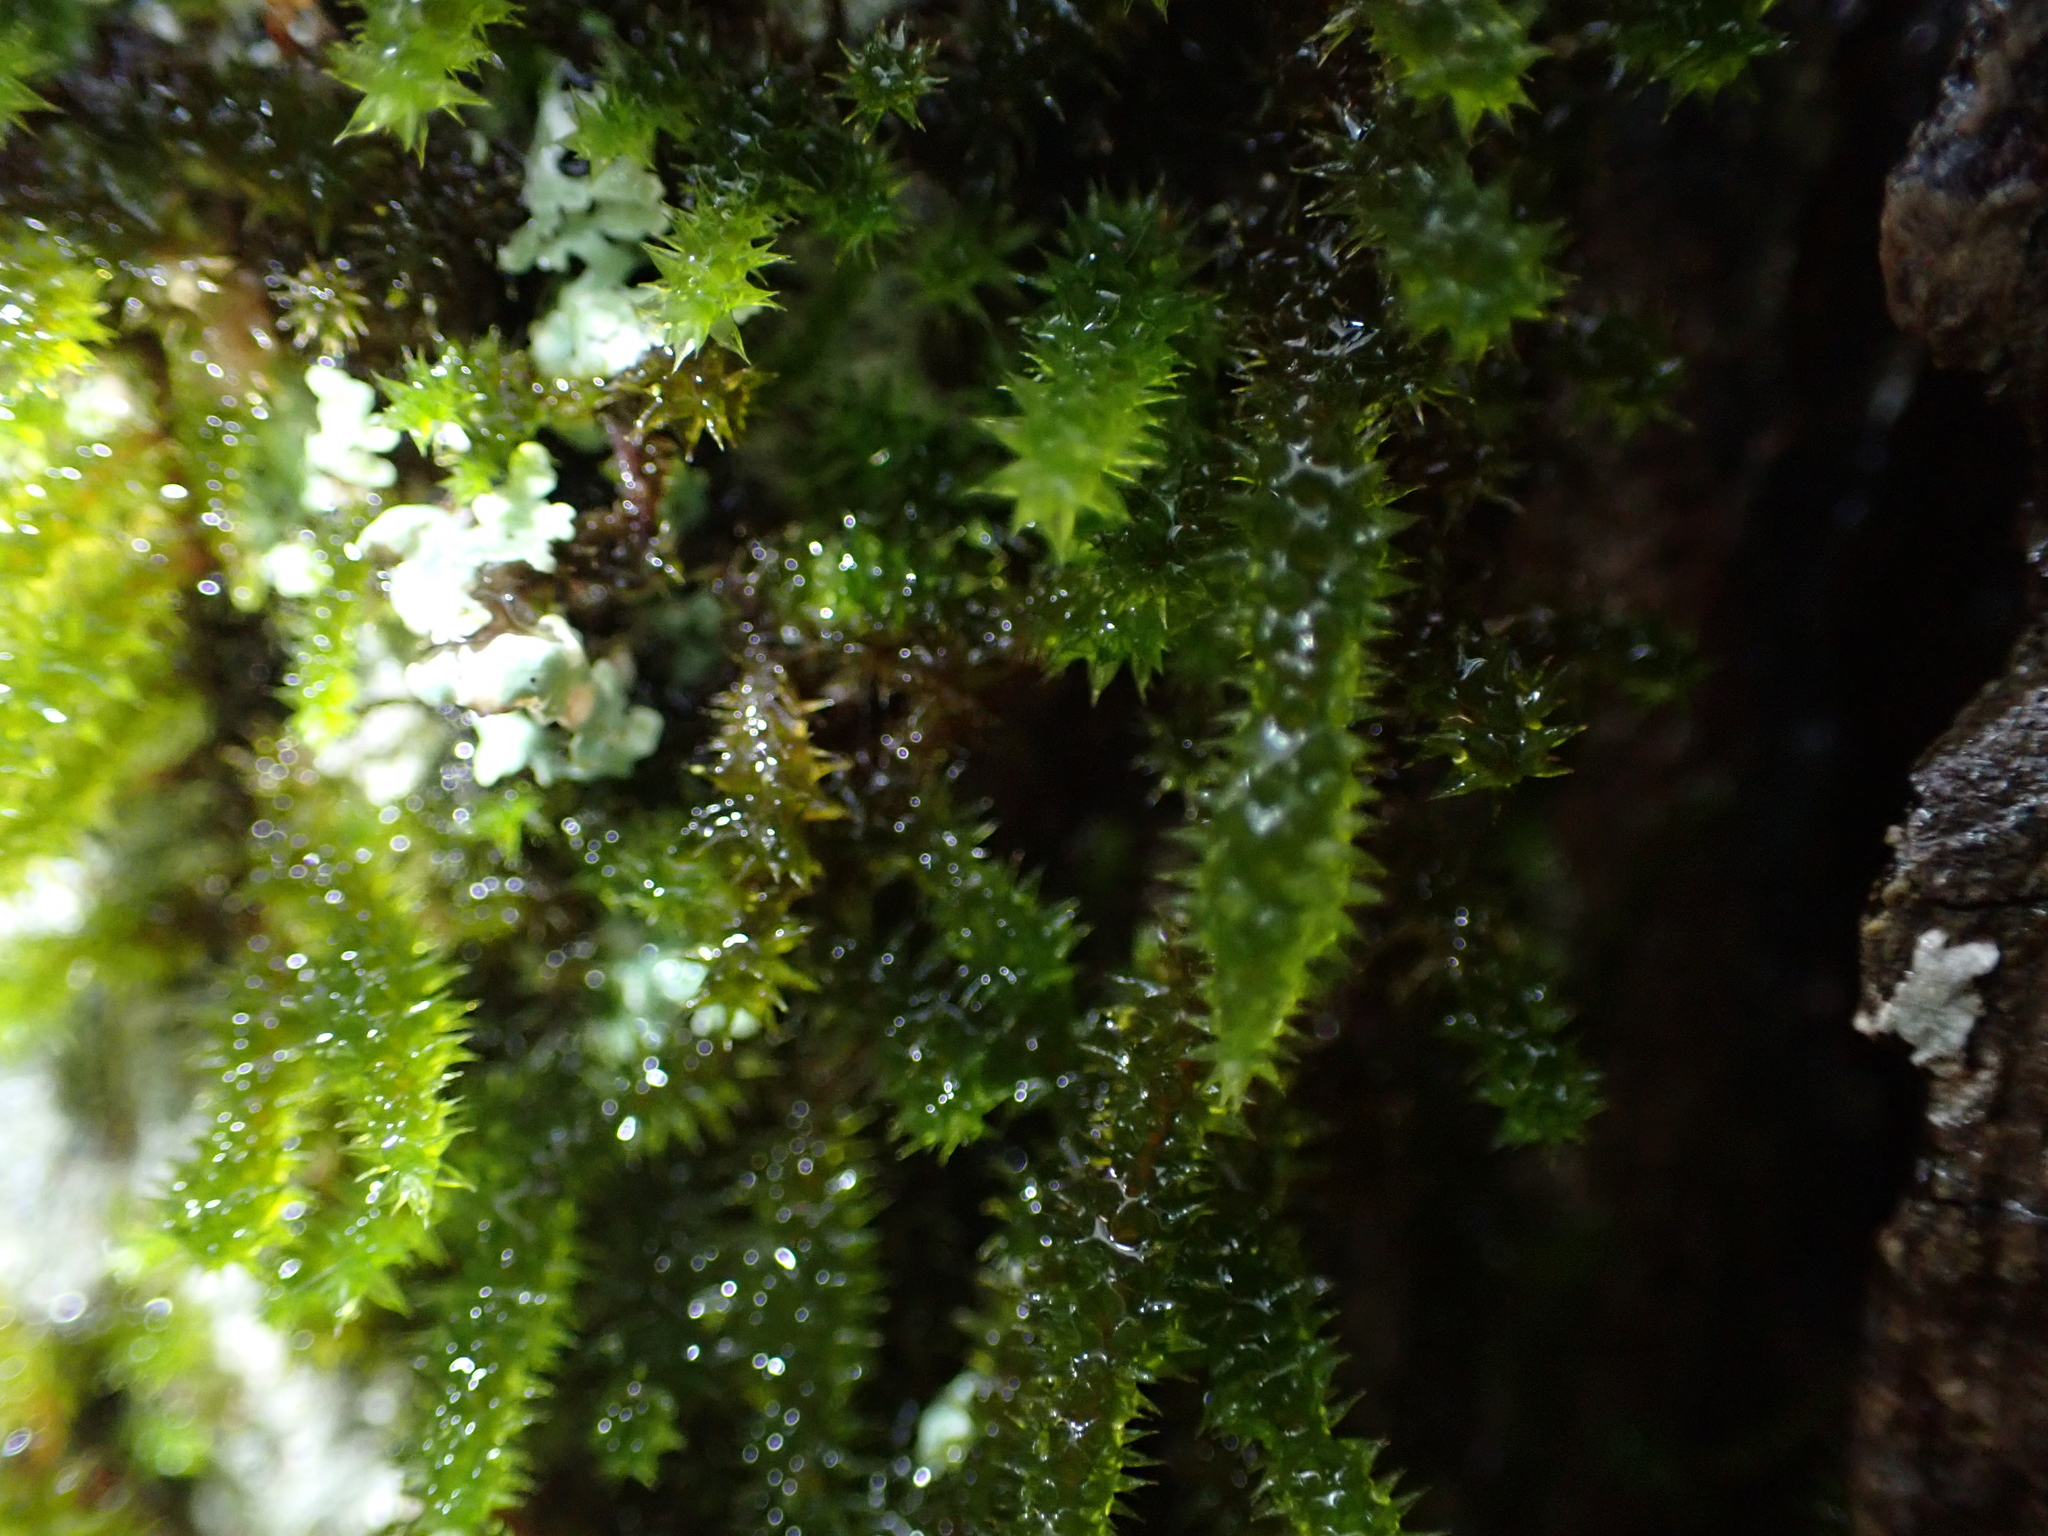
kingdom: Plantae
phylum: Bryophyta
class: Bryopsida
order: Hypnales
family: Leucodontaceae
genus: Leucodon
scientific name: Leucodon julaceus
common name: Smooth hook moss
